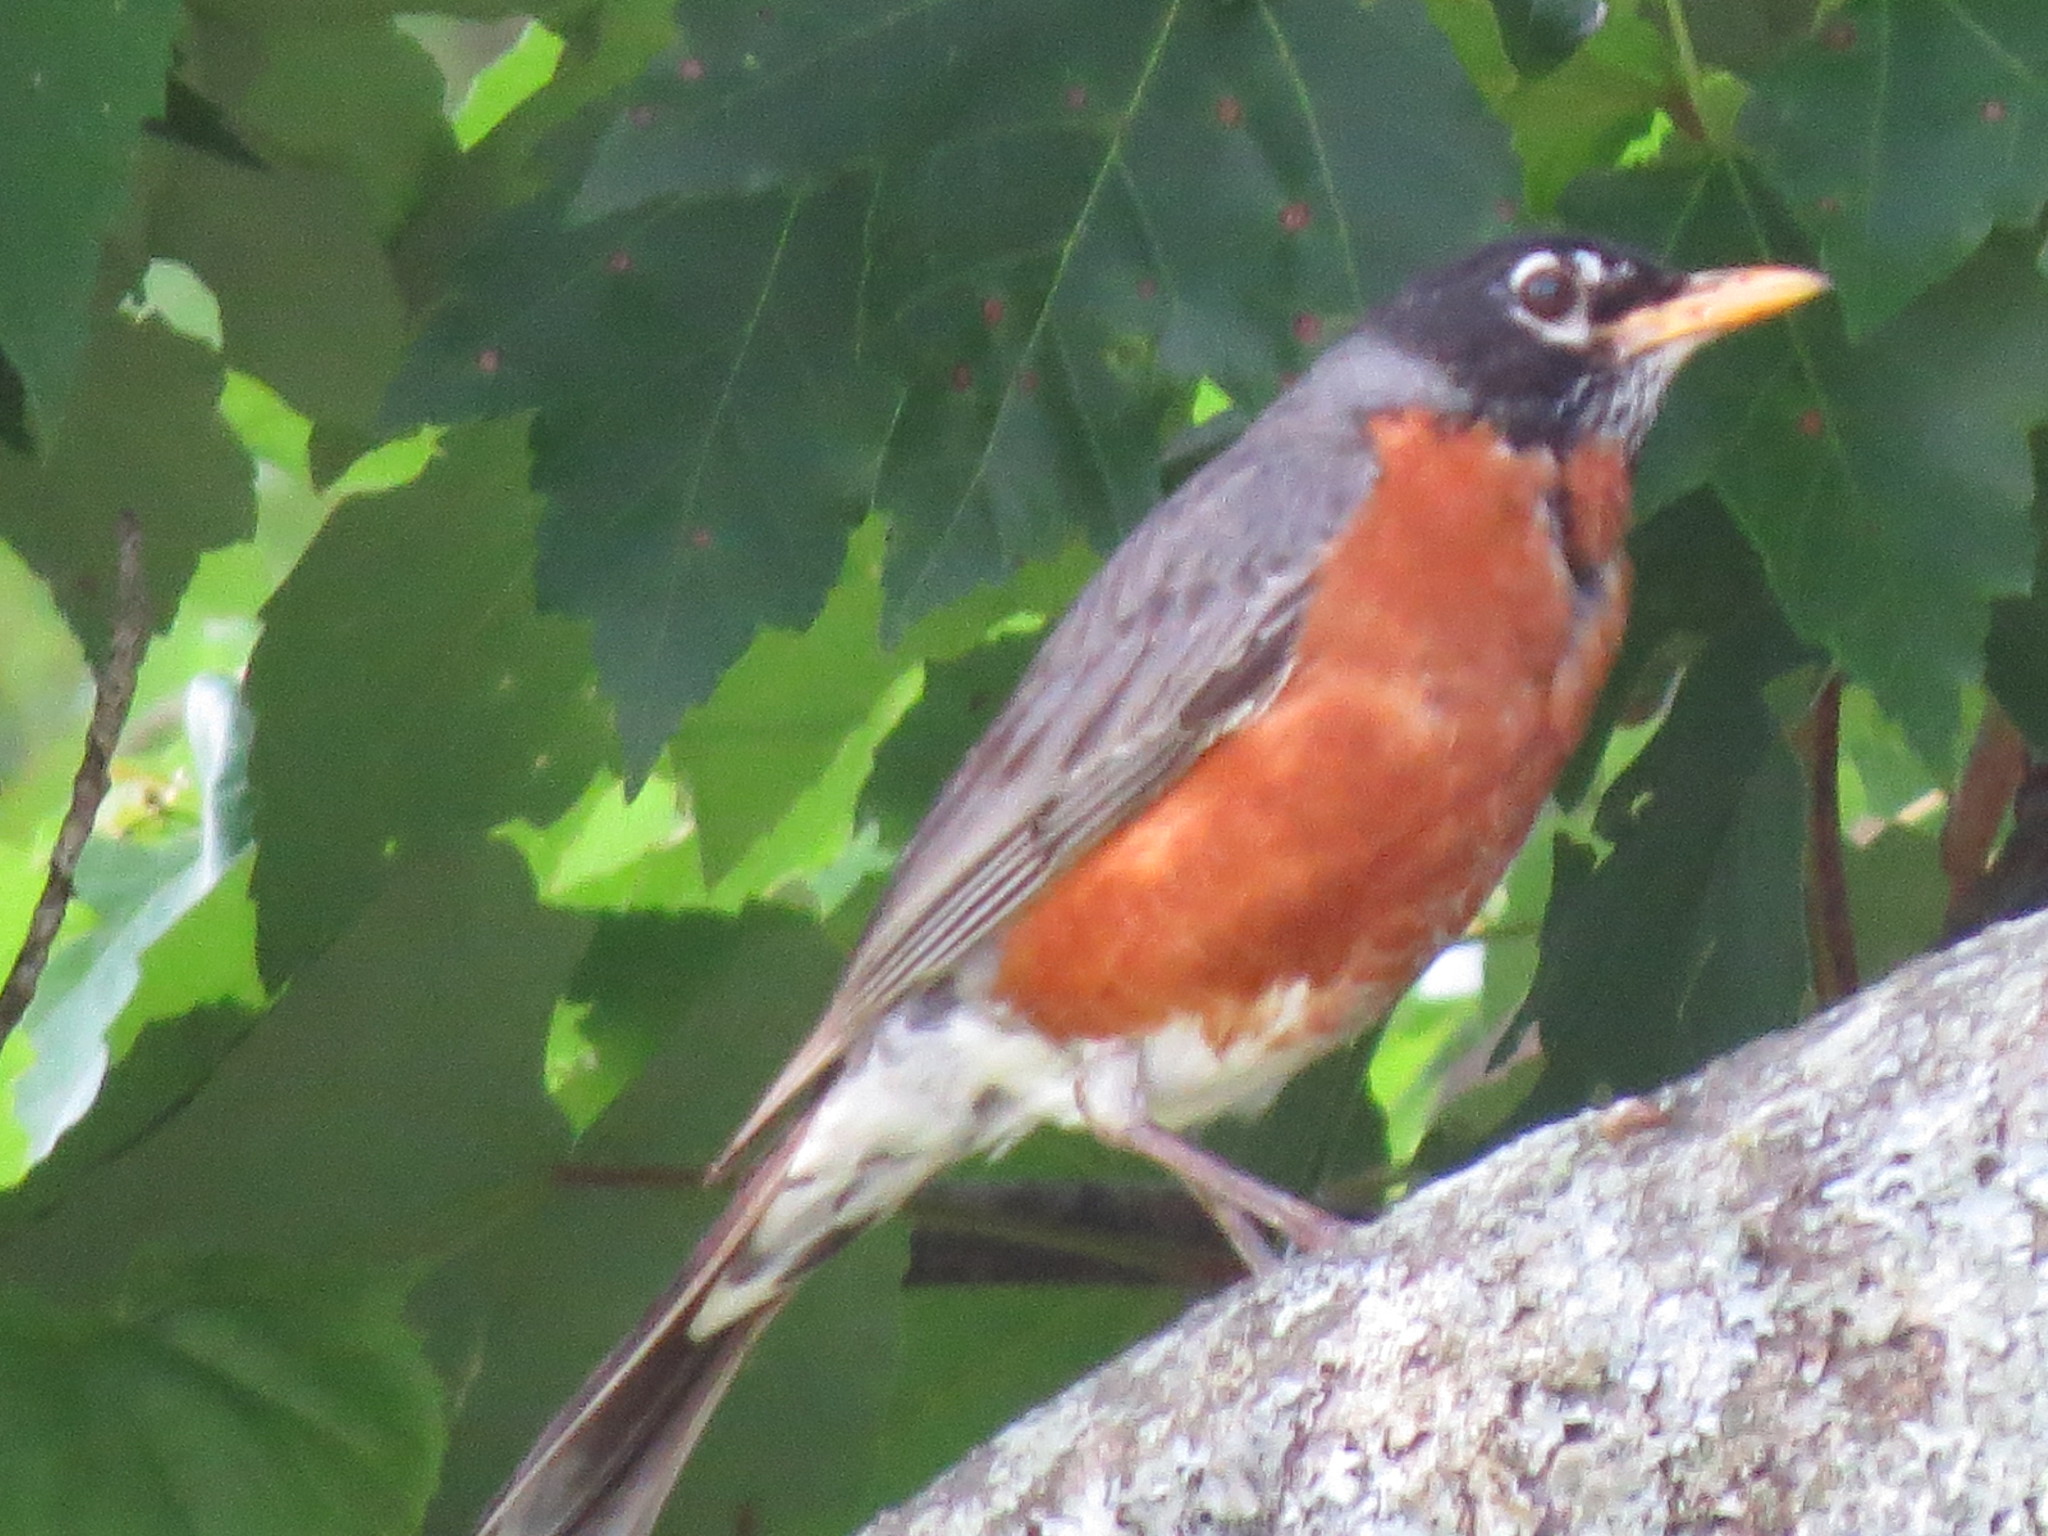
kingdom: Animalia
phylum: Chordata
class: Aves
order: Passeriformes
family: Turdidae
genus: Turdus
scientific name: Turdus migratorius
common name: American robin
